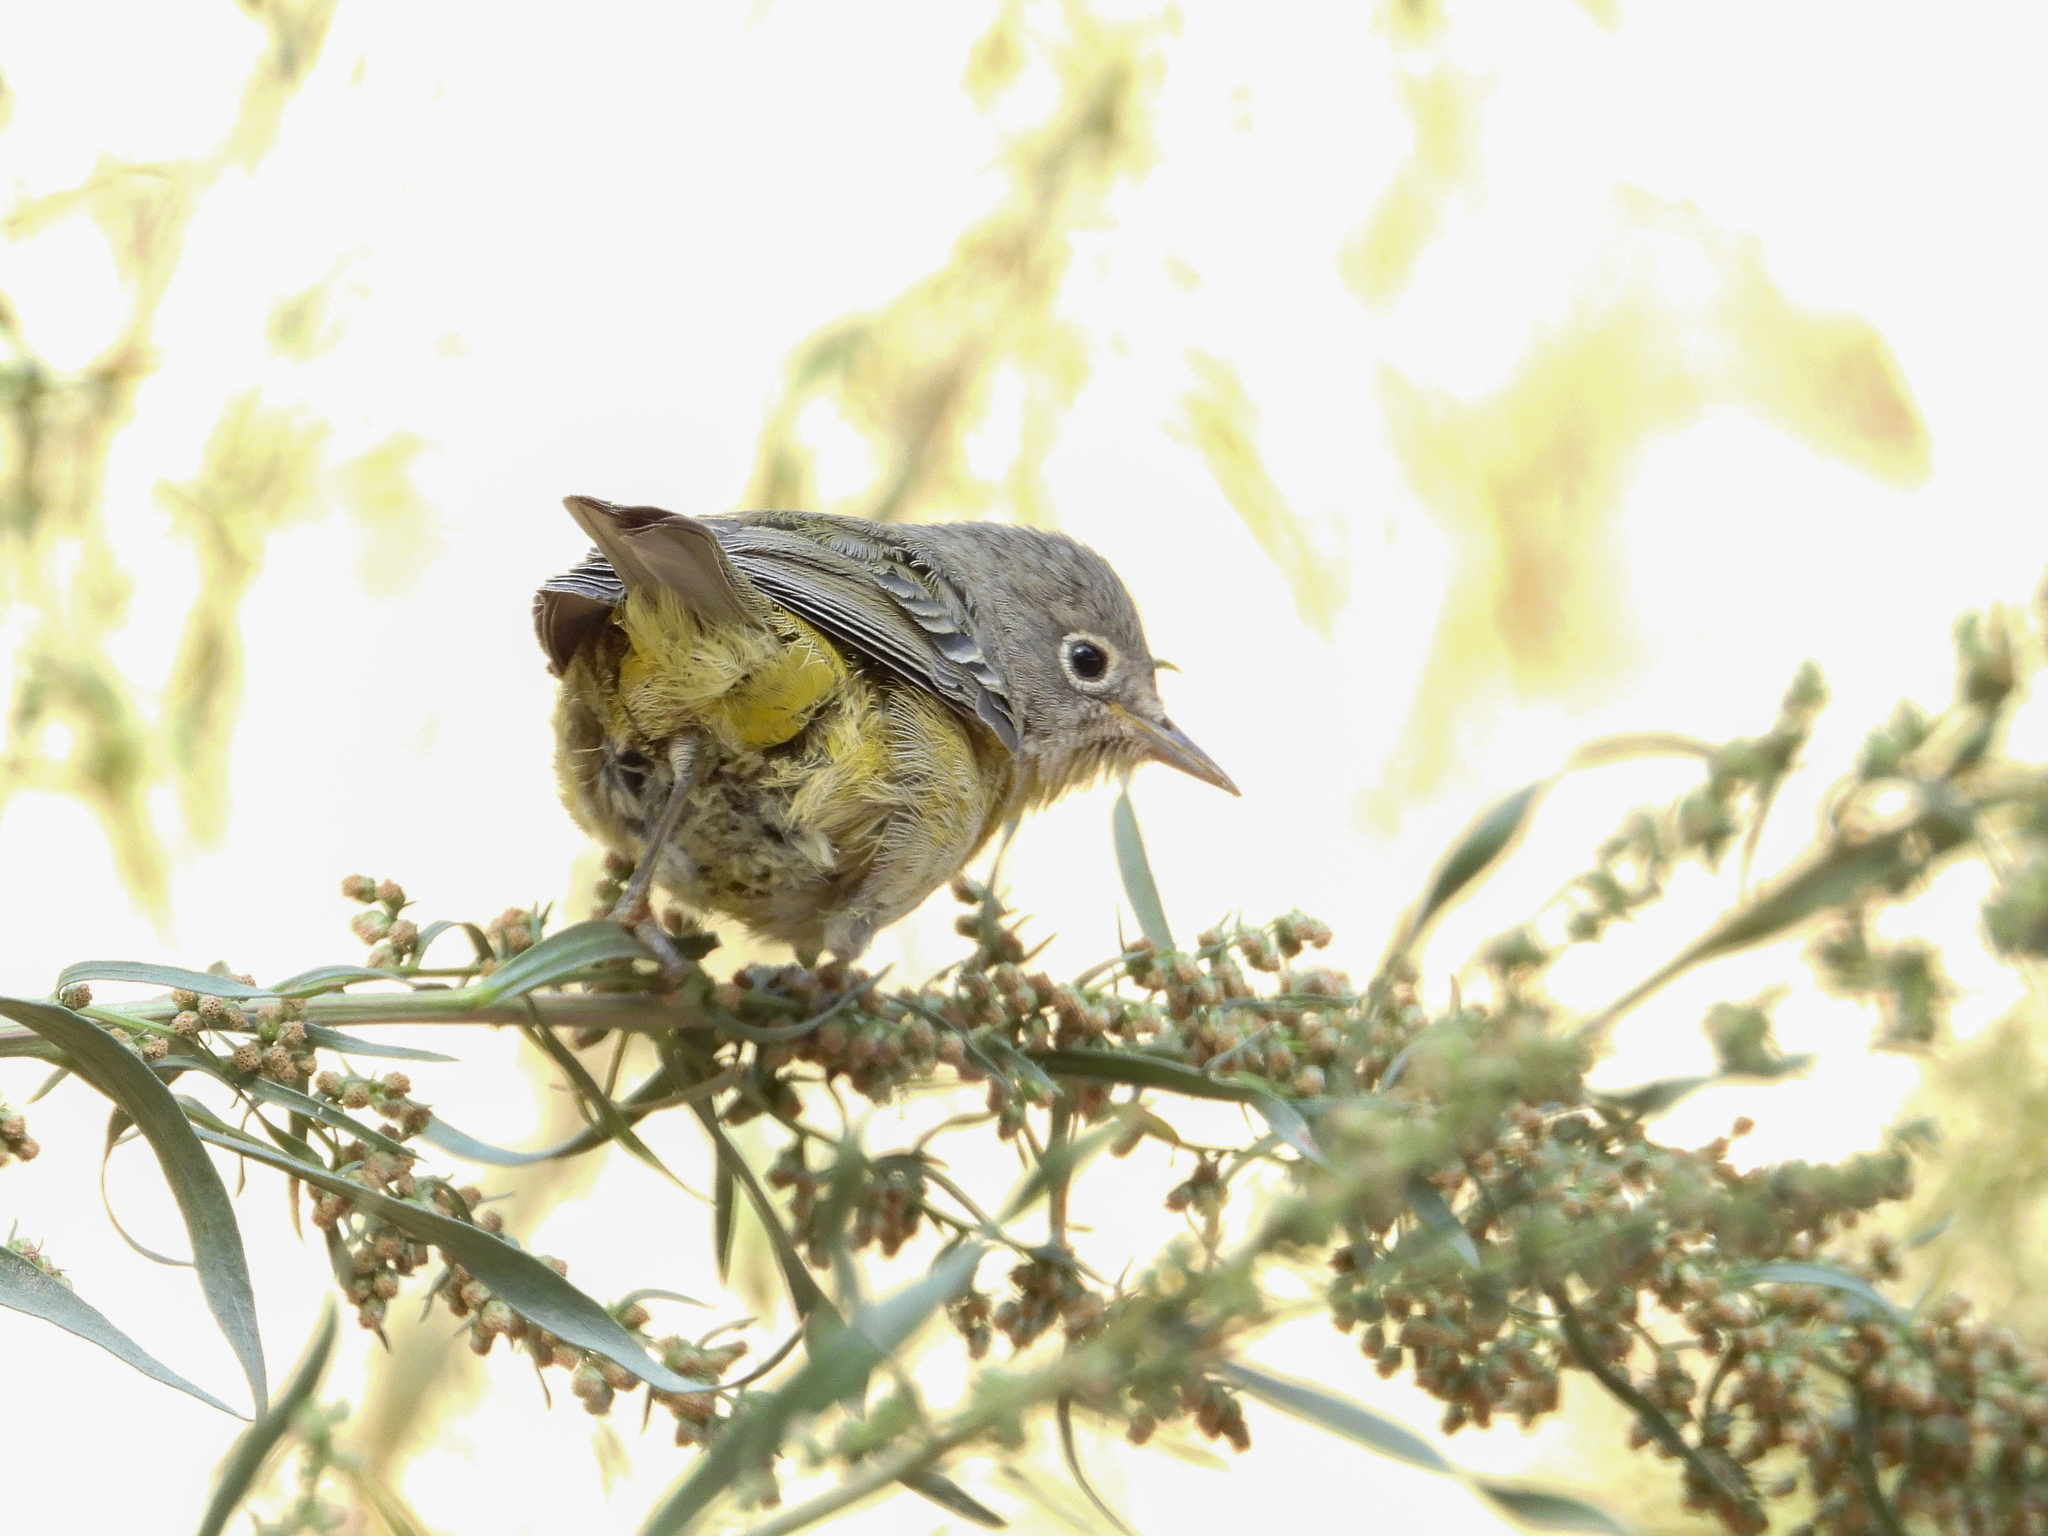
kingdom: Animalia
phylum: Chordata
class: Aves
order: Passeriformes
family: Parulidae
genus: Leiothlypis
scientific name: Leiothlypis ruficapilla
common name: Nashville warbler
